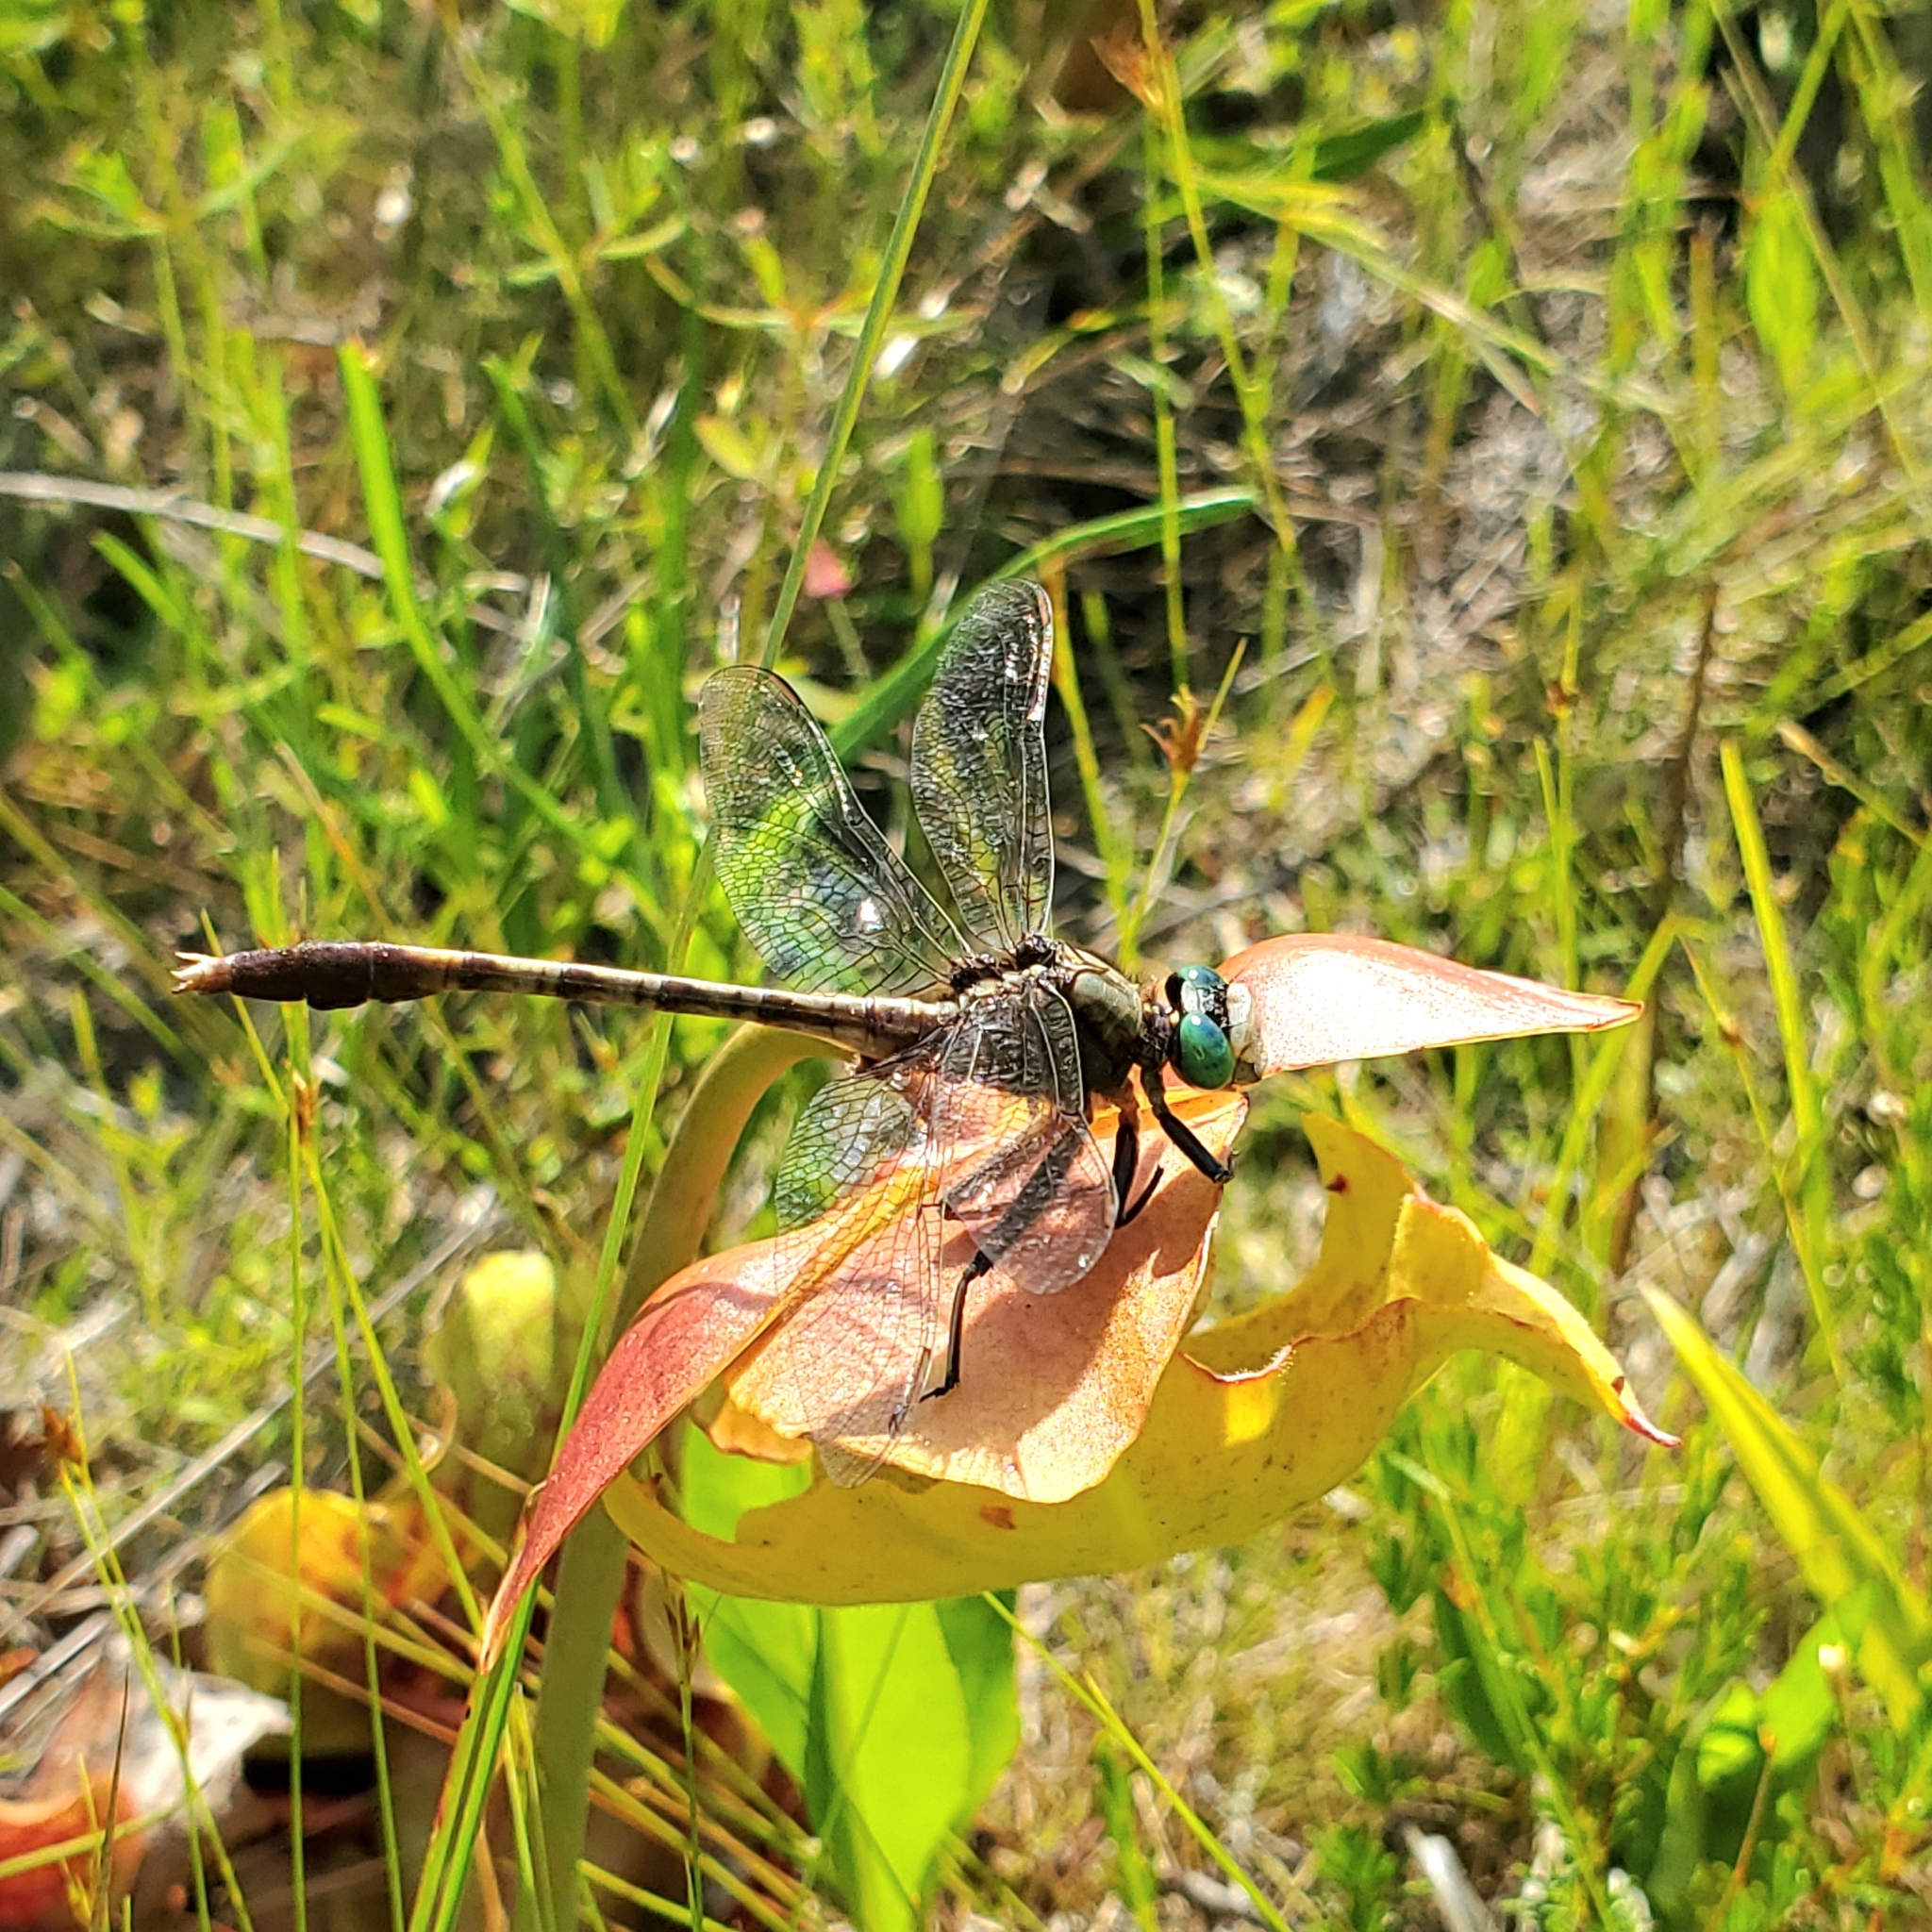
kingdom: Animalia
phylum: Arthropoda
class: Insecta
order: Odonata
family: Gomphidae
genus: Arigomphus
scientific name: Arigomphus pallidus
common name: Gray-green clubtail
